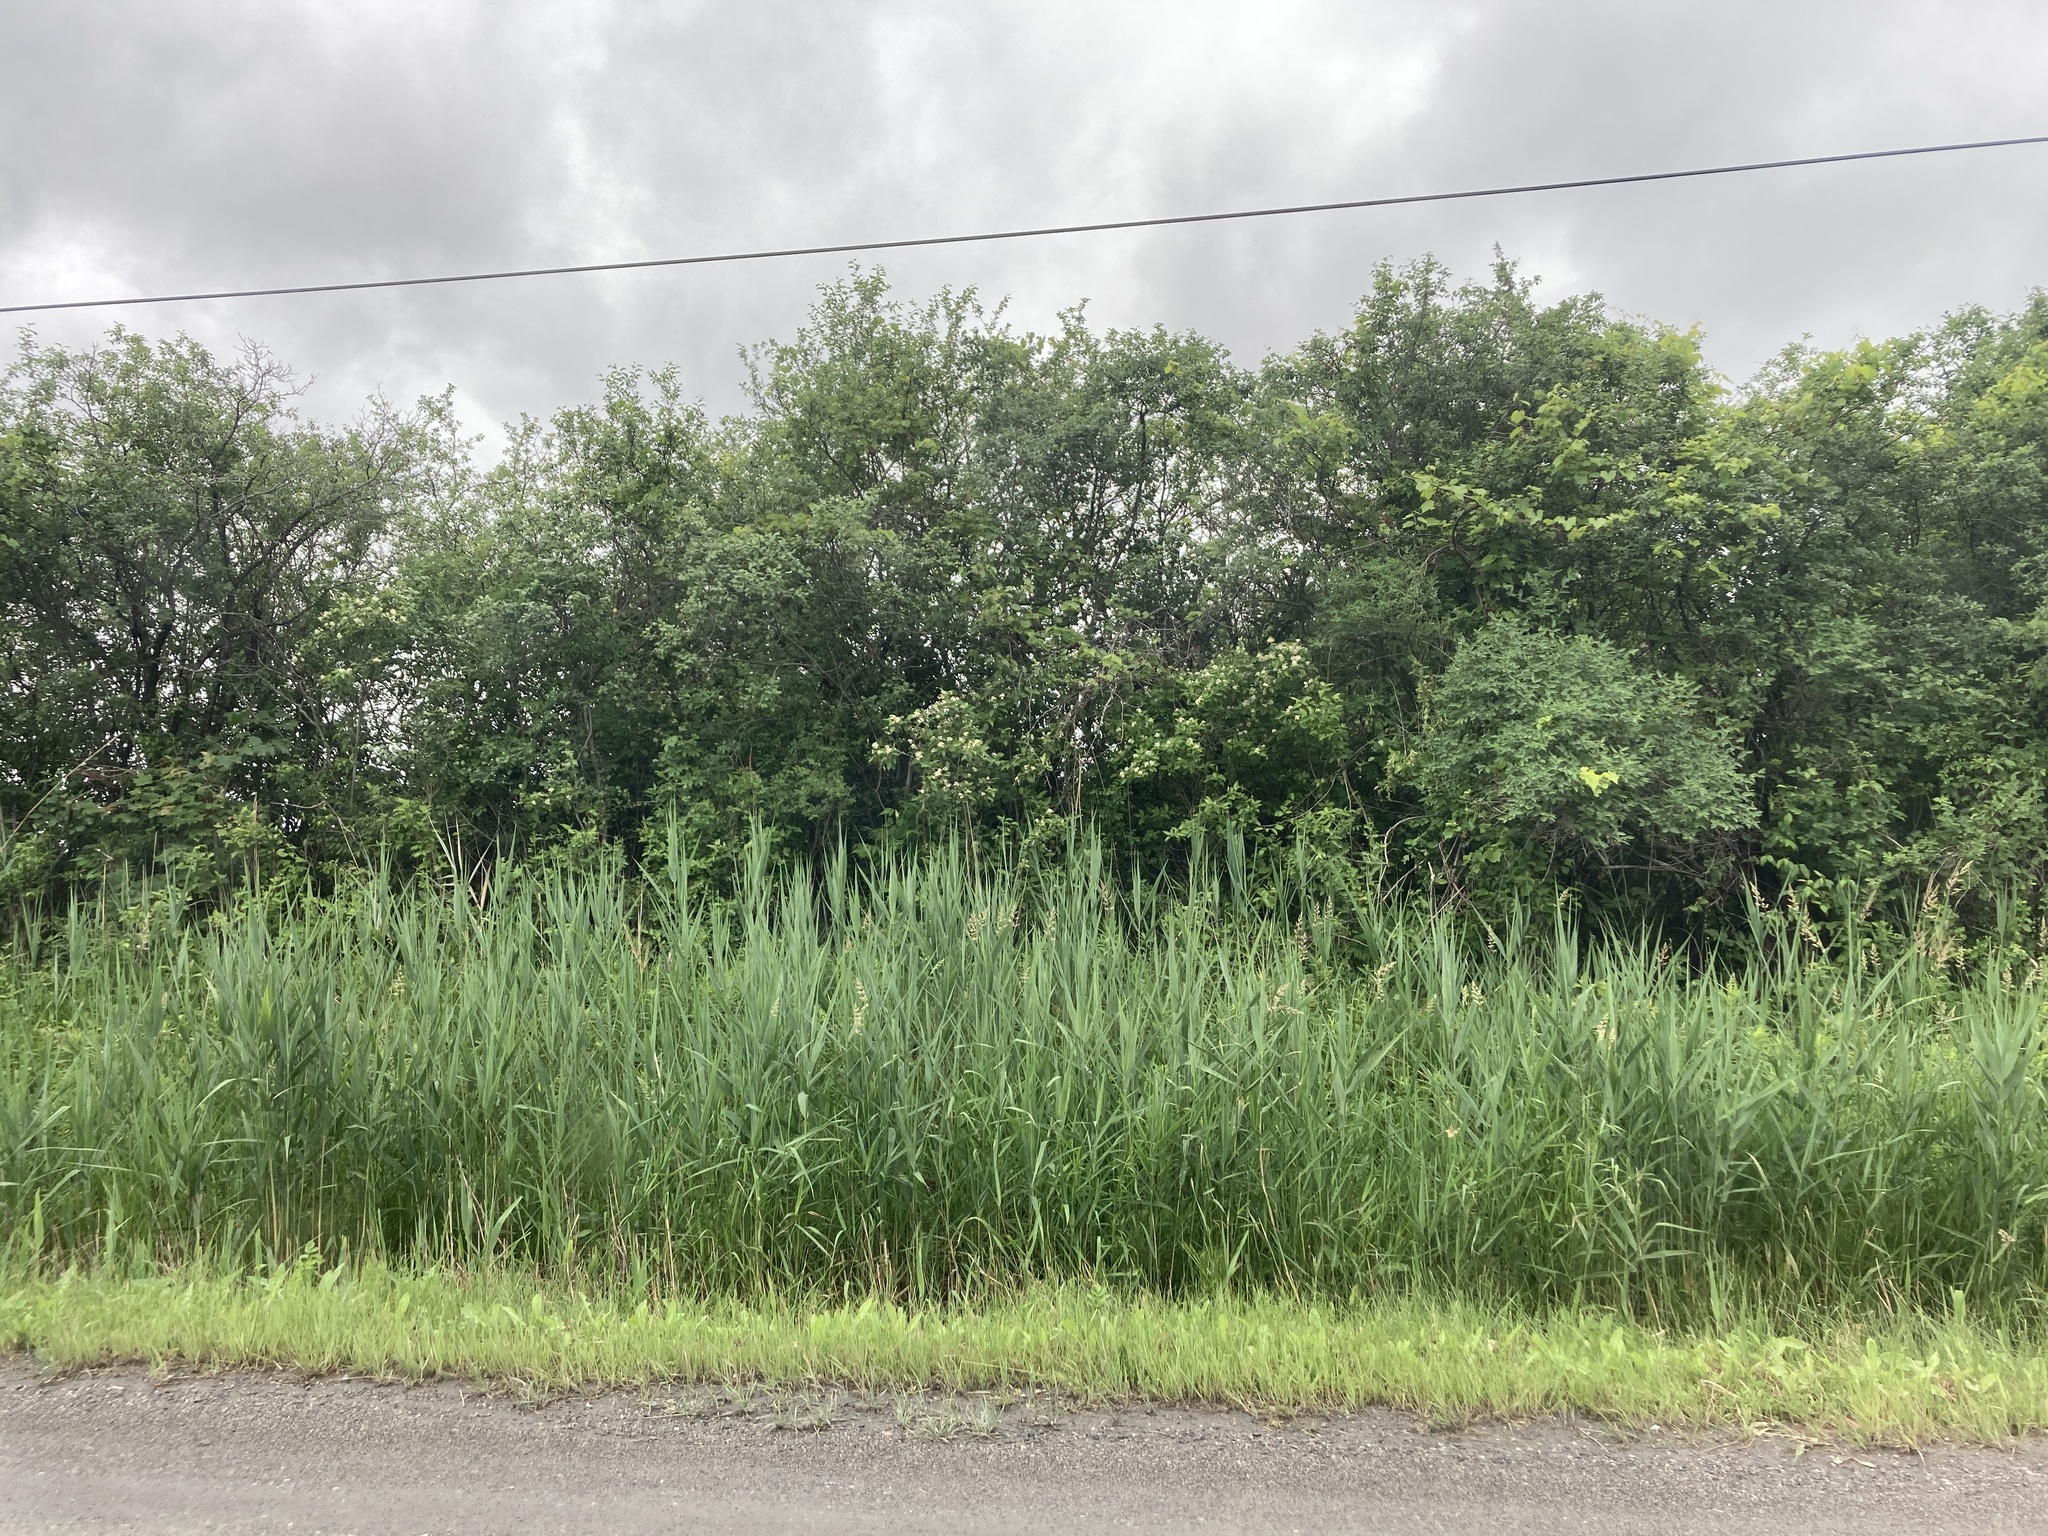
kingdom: Plantae
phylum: Tracheophyta
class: Liliopsida
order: Poales
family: Poaceae
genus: Phragmites
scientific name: Phragmites australis
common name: Common reed
